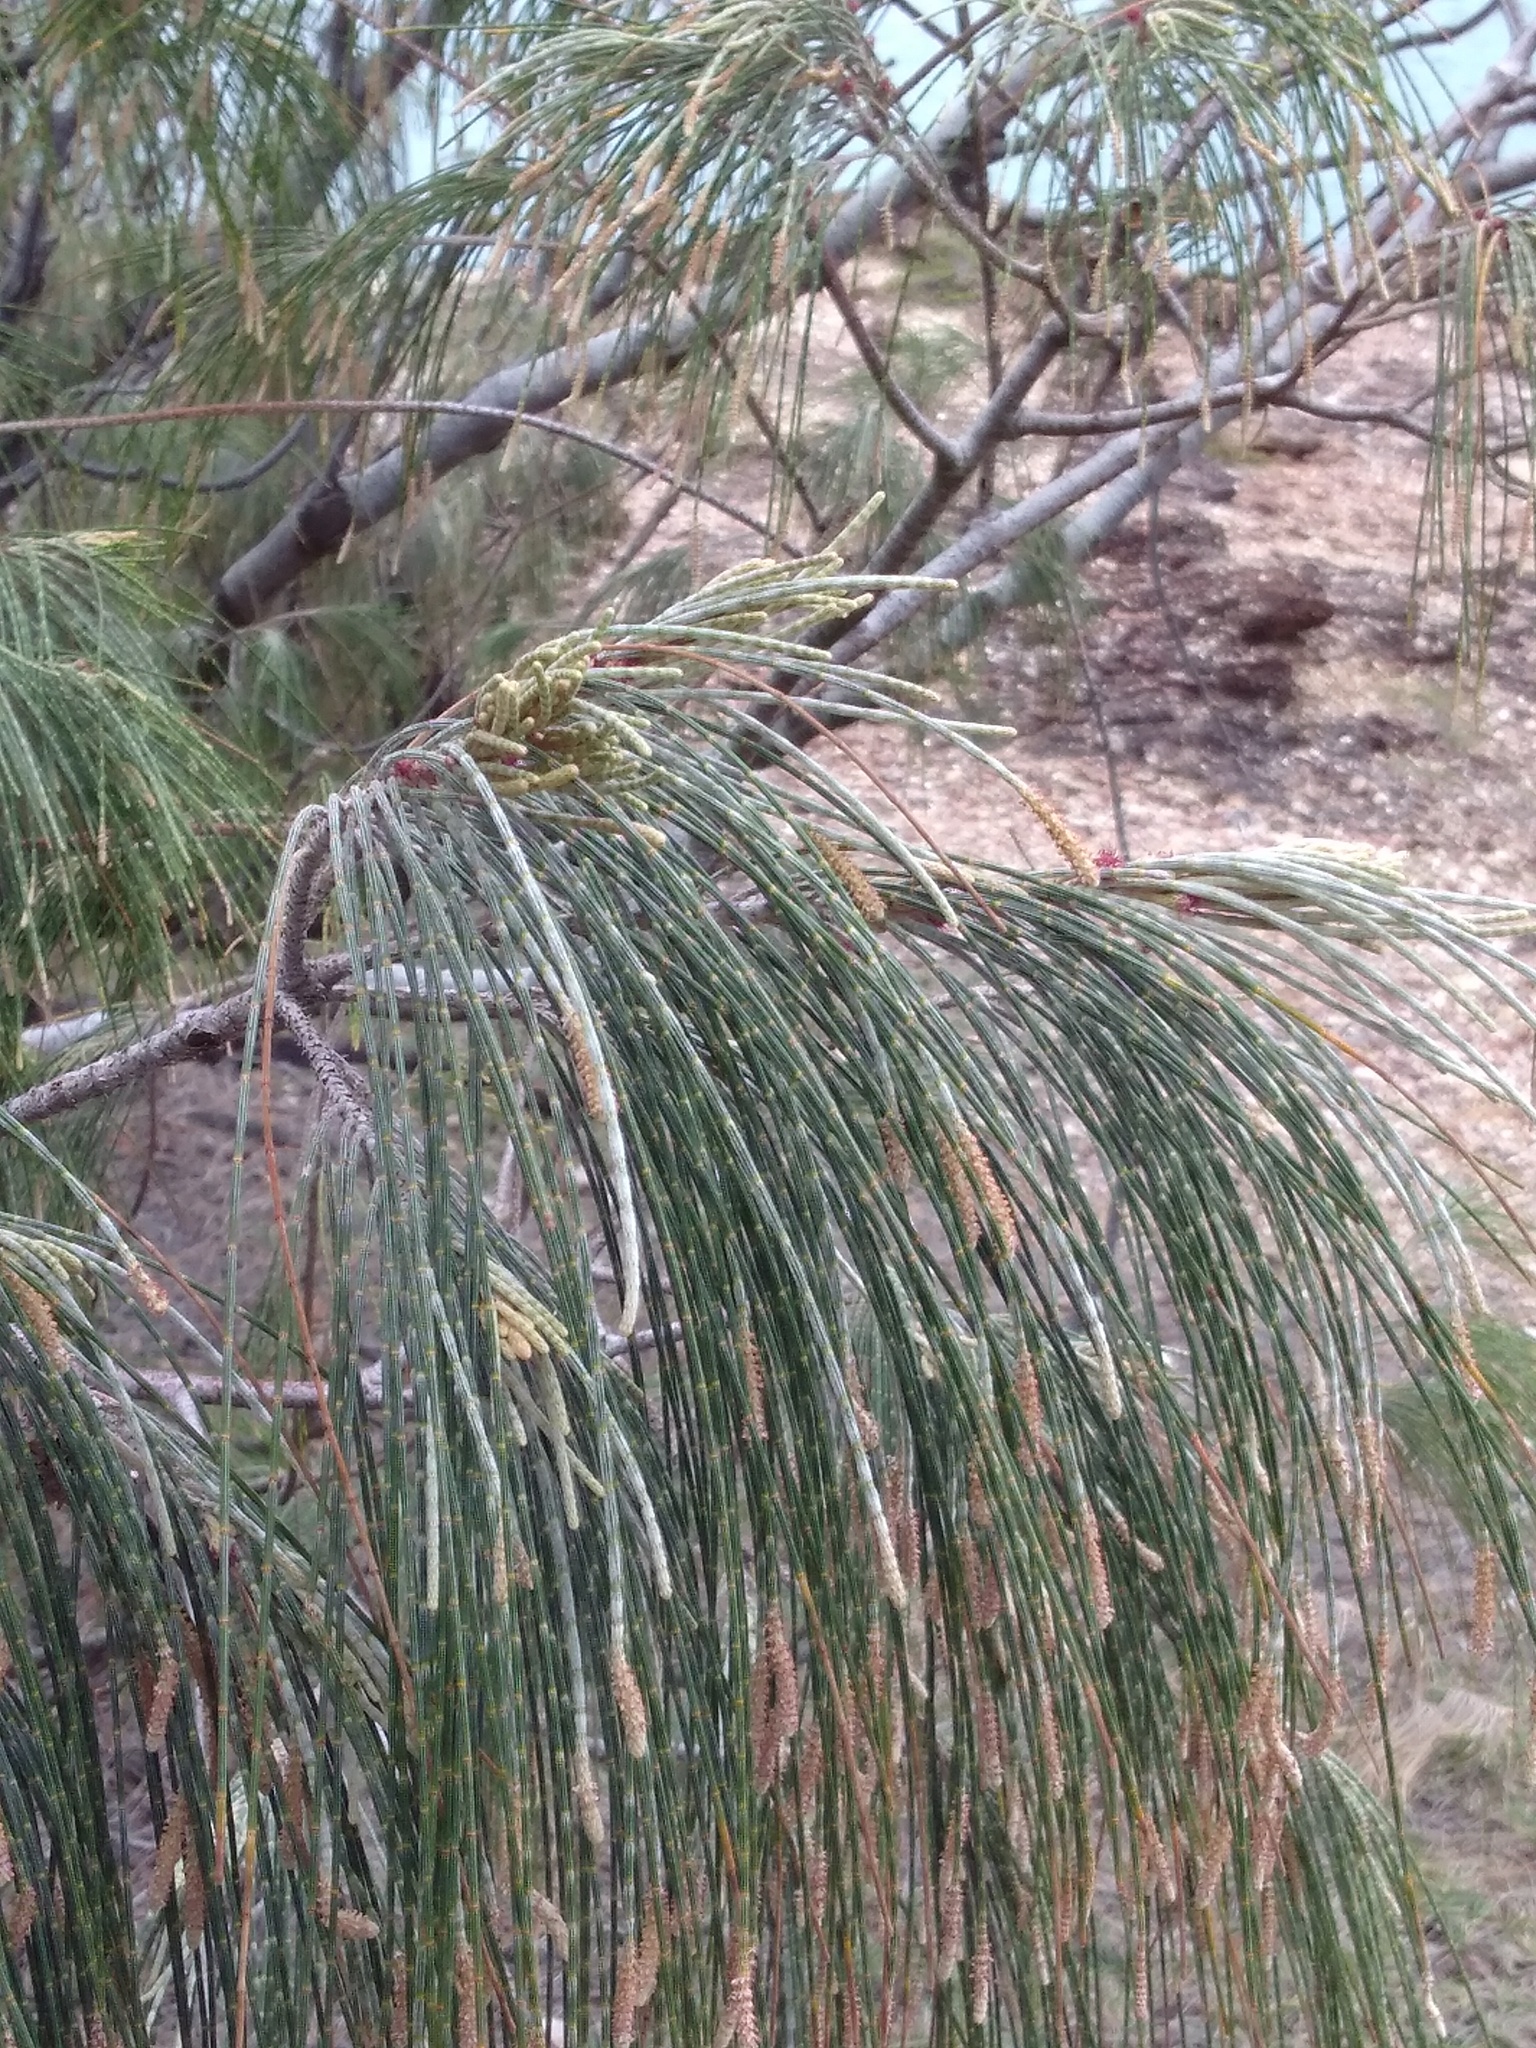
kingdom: Plantae
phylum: Tracheophyta
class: Magnoliopsida
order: Fagales
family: Casuarinaceae
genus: Casuarina
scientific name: Casuarina equisetifolia
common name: Beach sheoak
